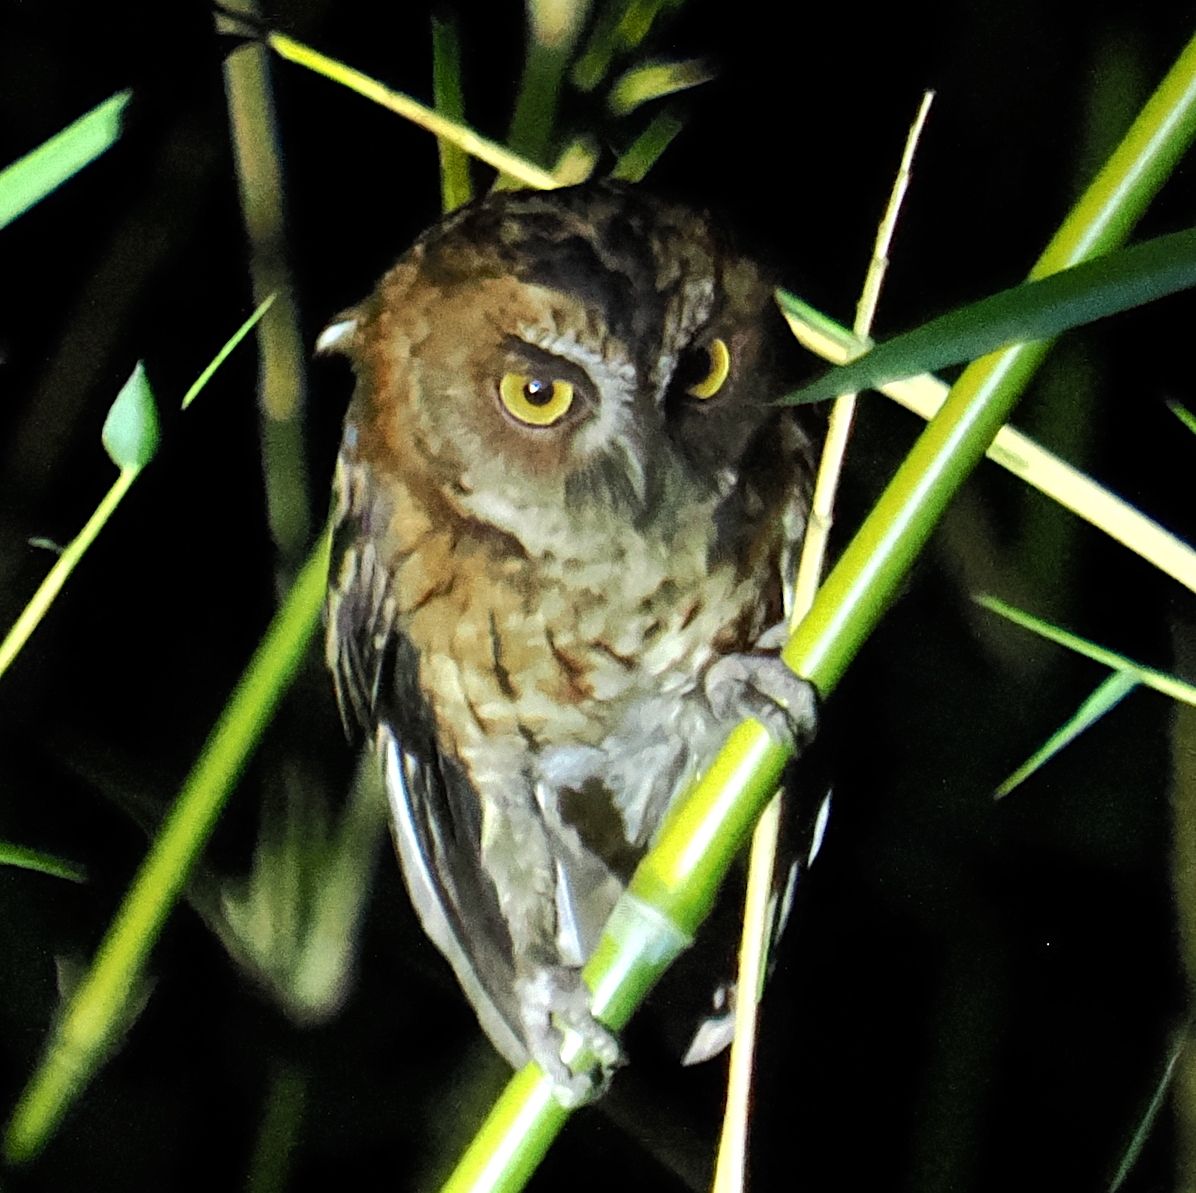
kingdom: Animalia
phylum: Chordata
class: Aves
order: Strigiformes
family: Strigidae
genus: Otus
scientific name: Otus magicus
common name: Moluccan scops owl
